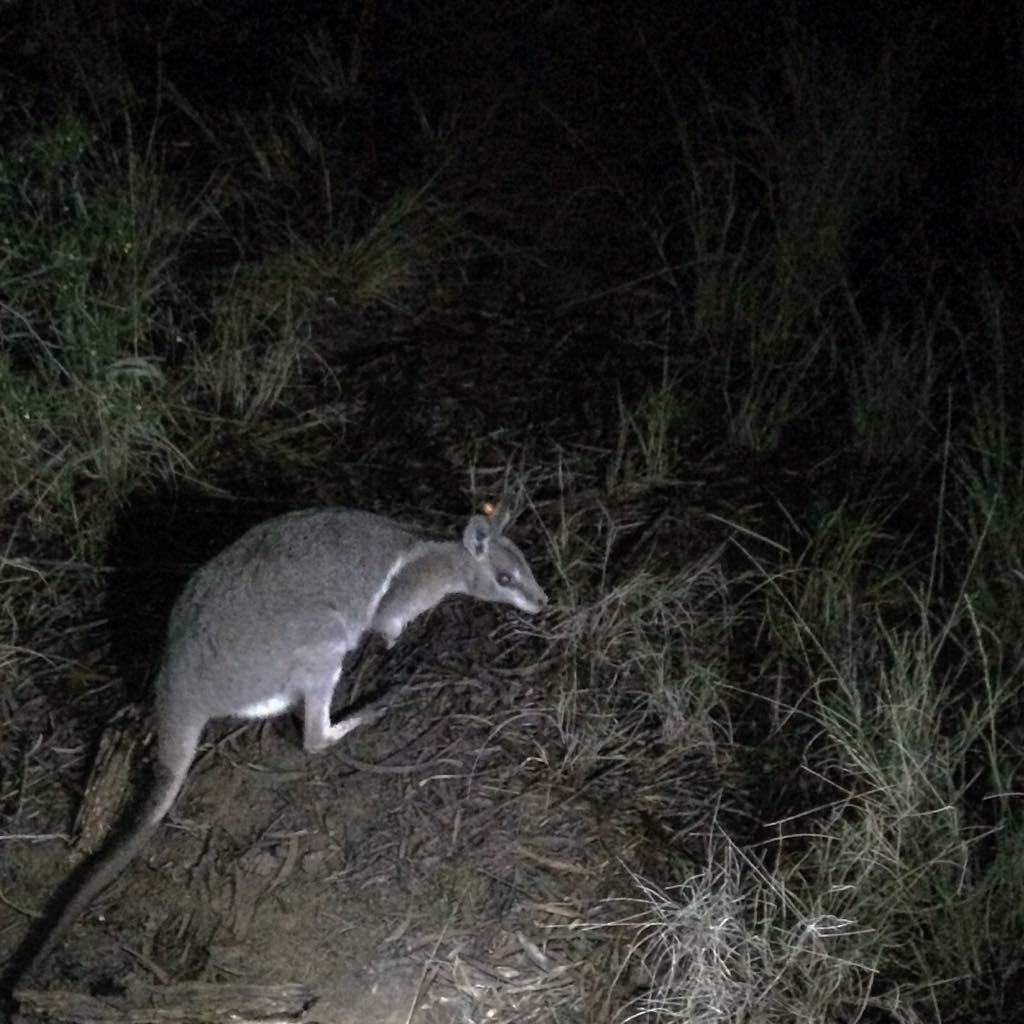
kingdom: Animalia
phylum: Chordata
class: Mammalia
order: Diprotodontia
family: Macropodidae
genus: Onychogalea
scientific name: Onychogalea fraenata
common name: Bridled nail-tail wallaby
